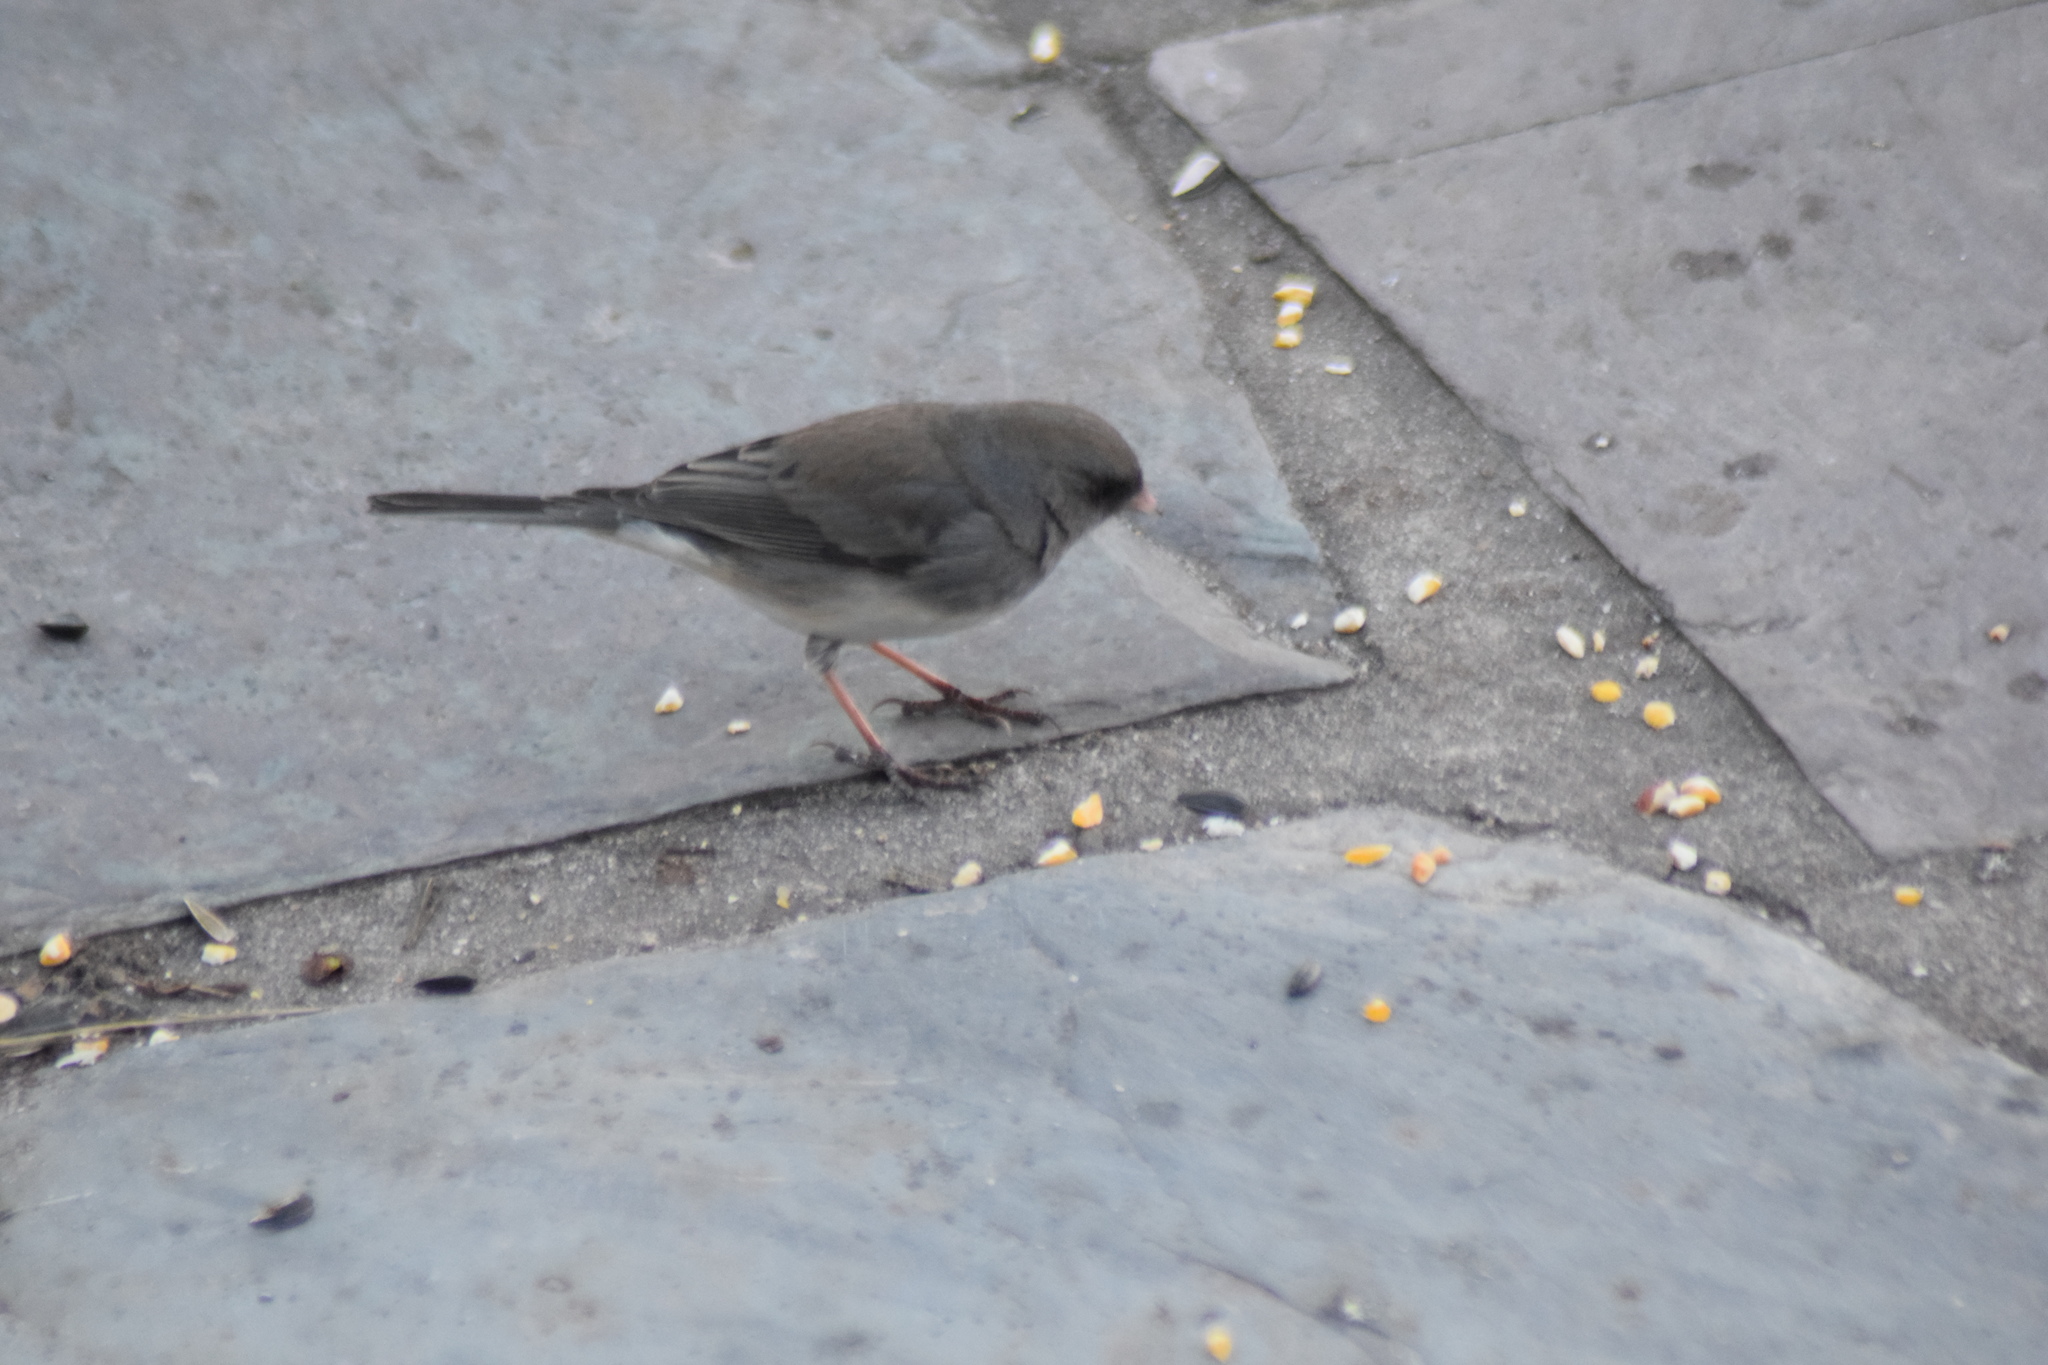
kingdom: Animalia
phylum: Chordata
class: Aves
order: Passeriformes
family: Passerellidae
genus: Junco
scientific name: Junco hyemalis
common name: Dark-eyed junco
